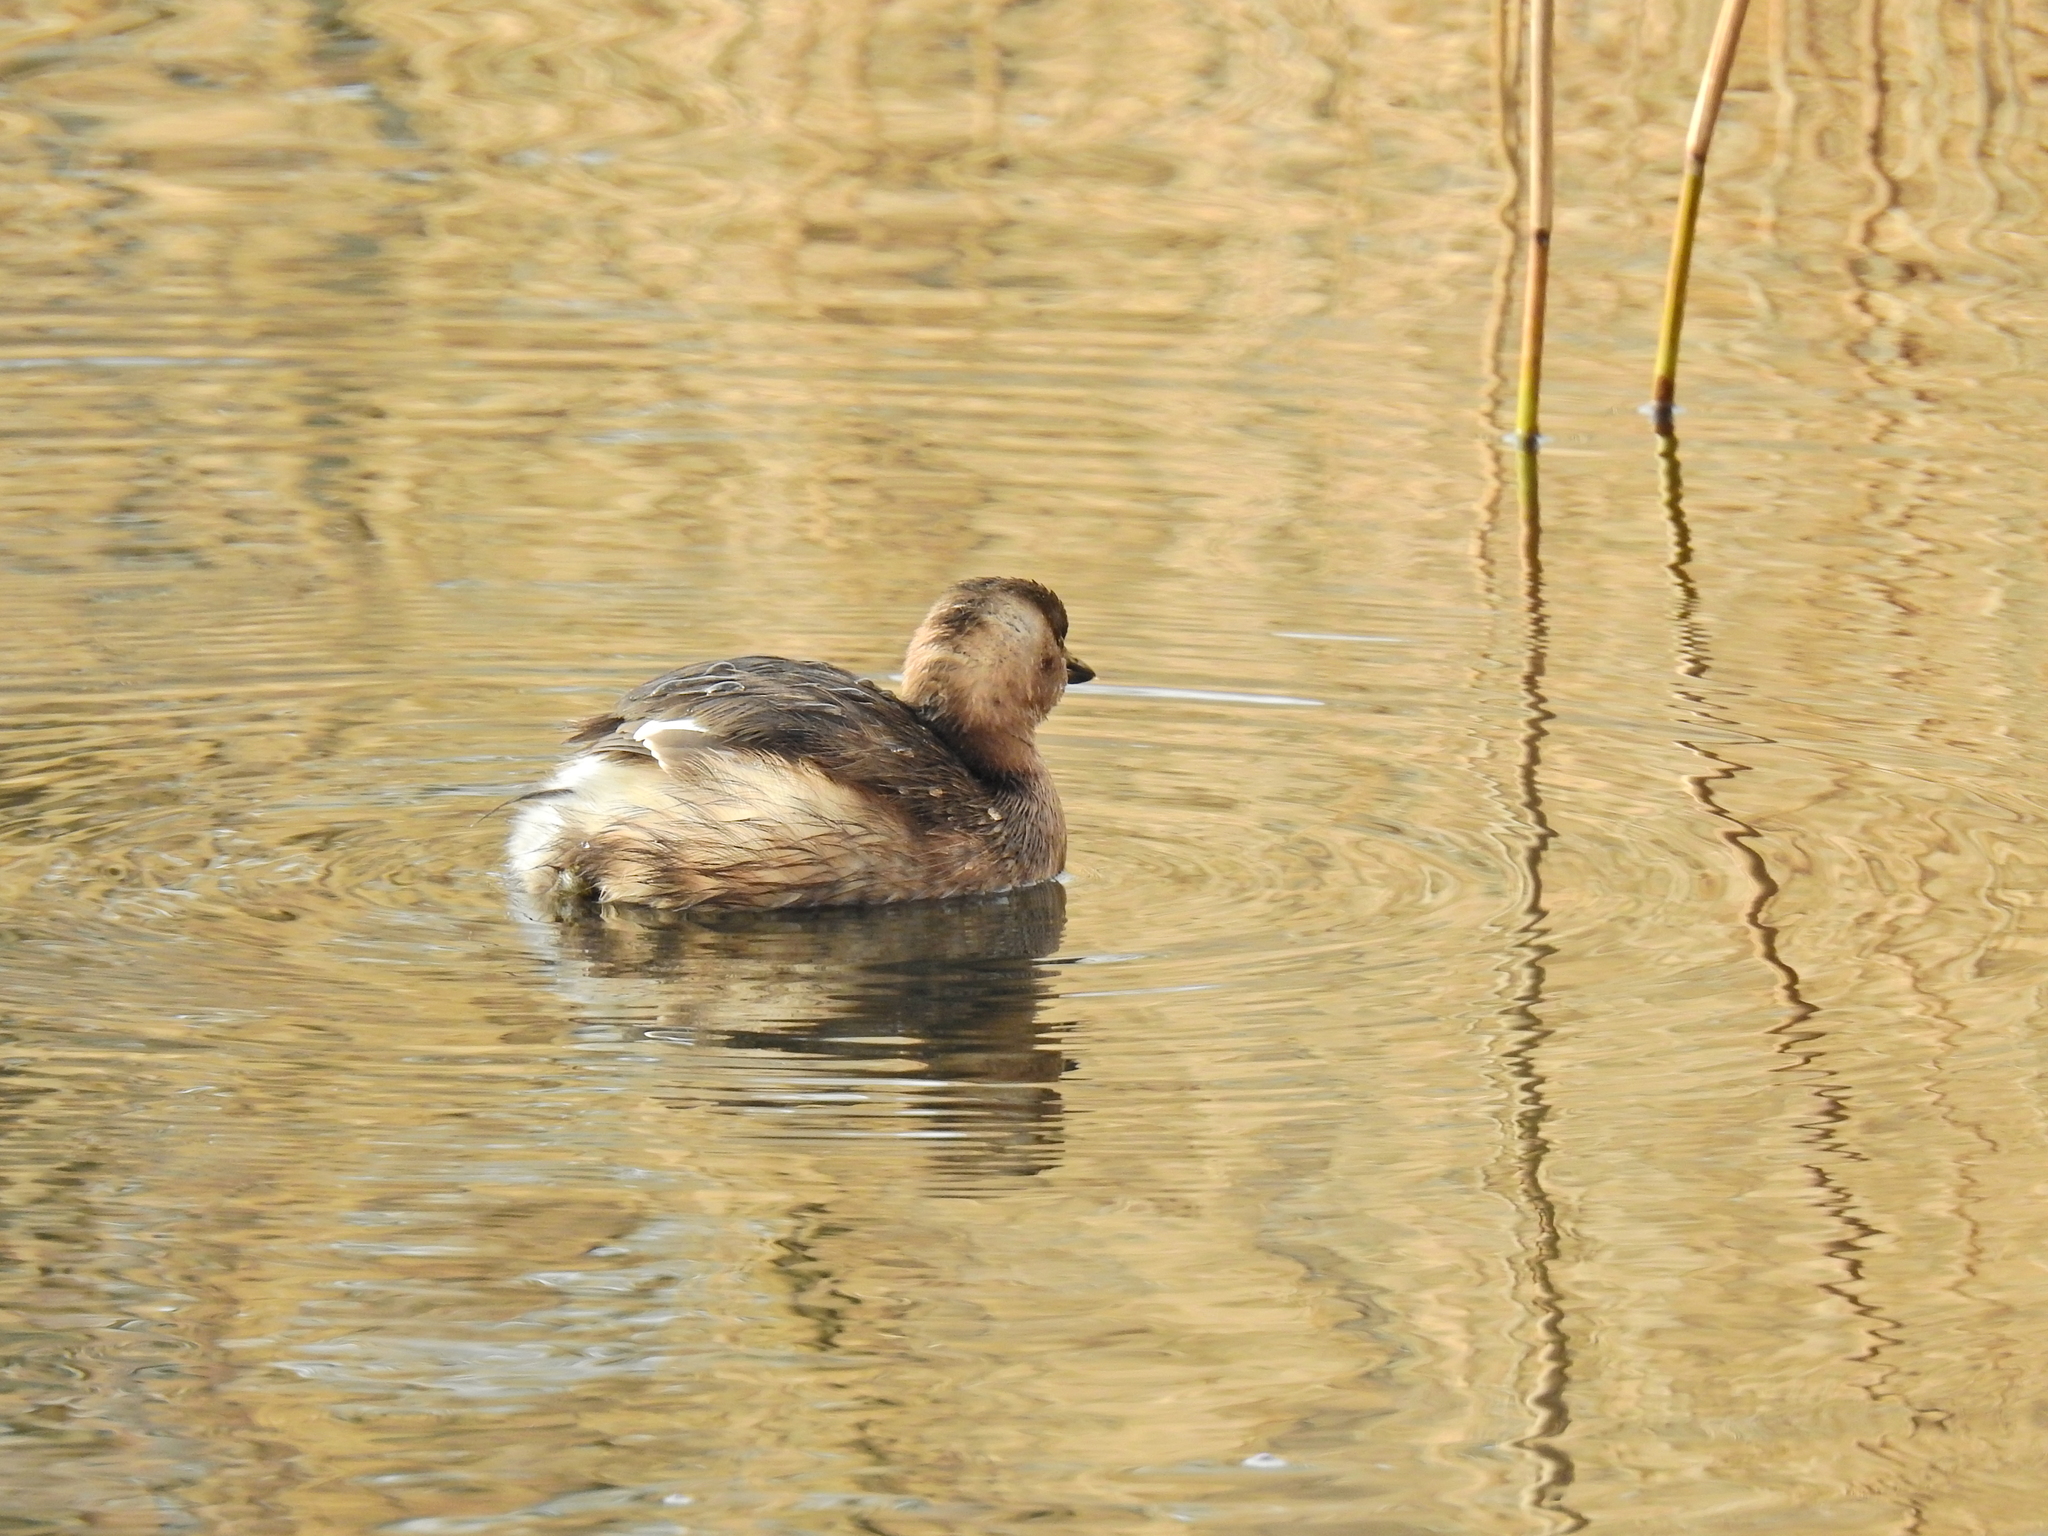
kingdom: Animalia
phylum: Chordata
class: Aves
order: Podicipediformes
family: Podicipedidae
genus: Tachybaptus
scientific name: Tachybaptus ruficollis
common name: Little grebe
